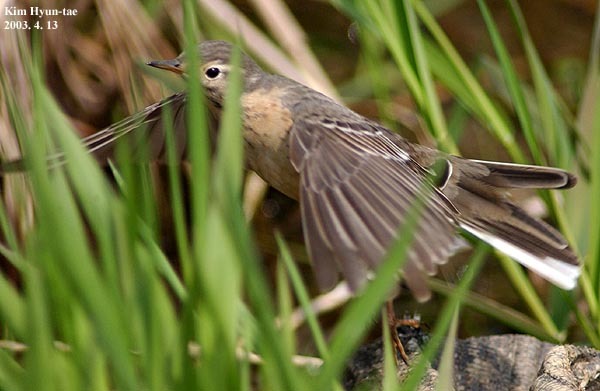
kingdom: Animalia
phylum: Chordata
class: Aves
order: Passeriformes
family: Motacillidae
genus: Anthus
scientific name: Anthus spinoletta
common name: Water pipit
